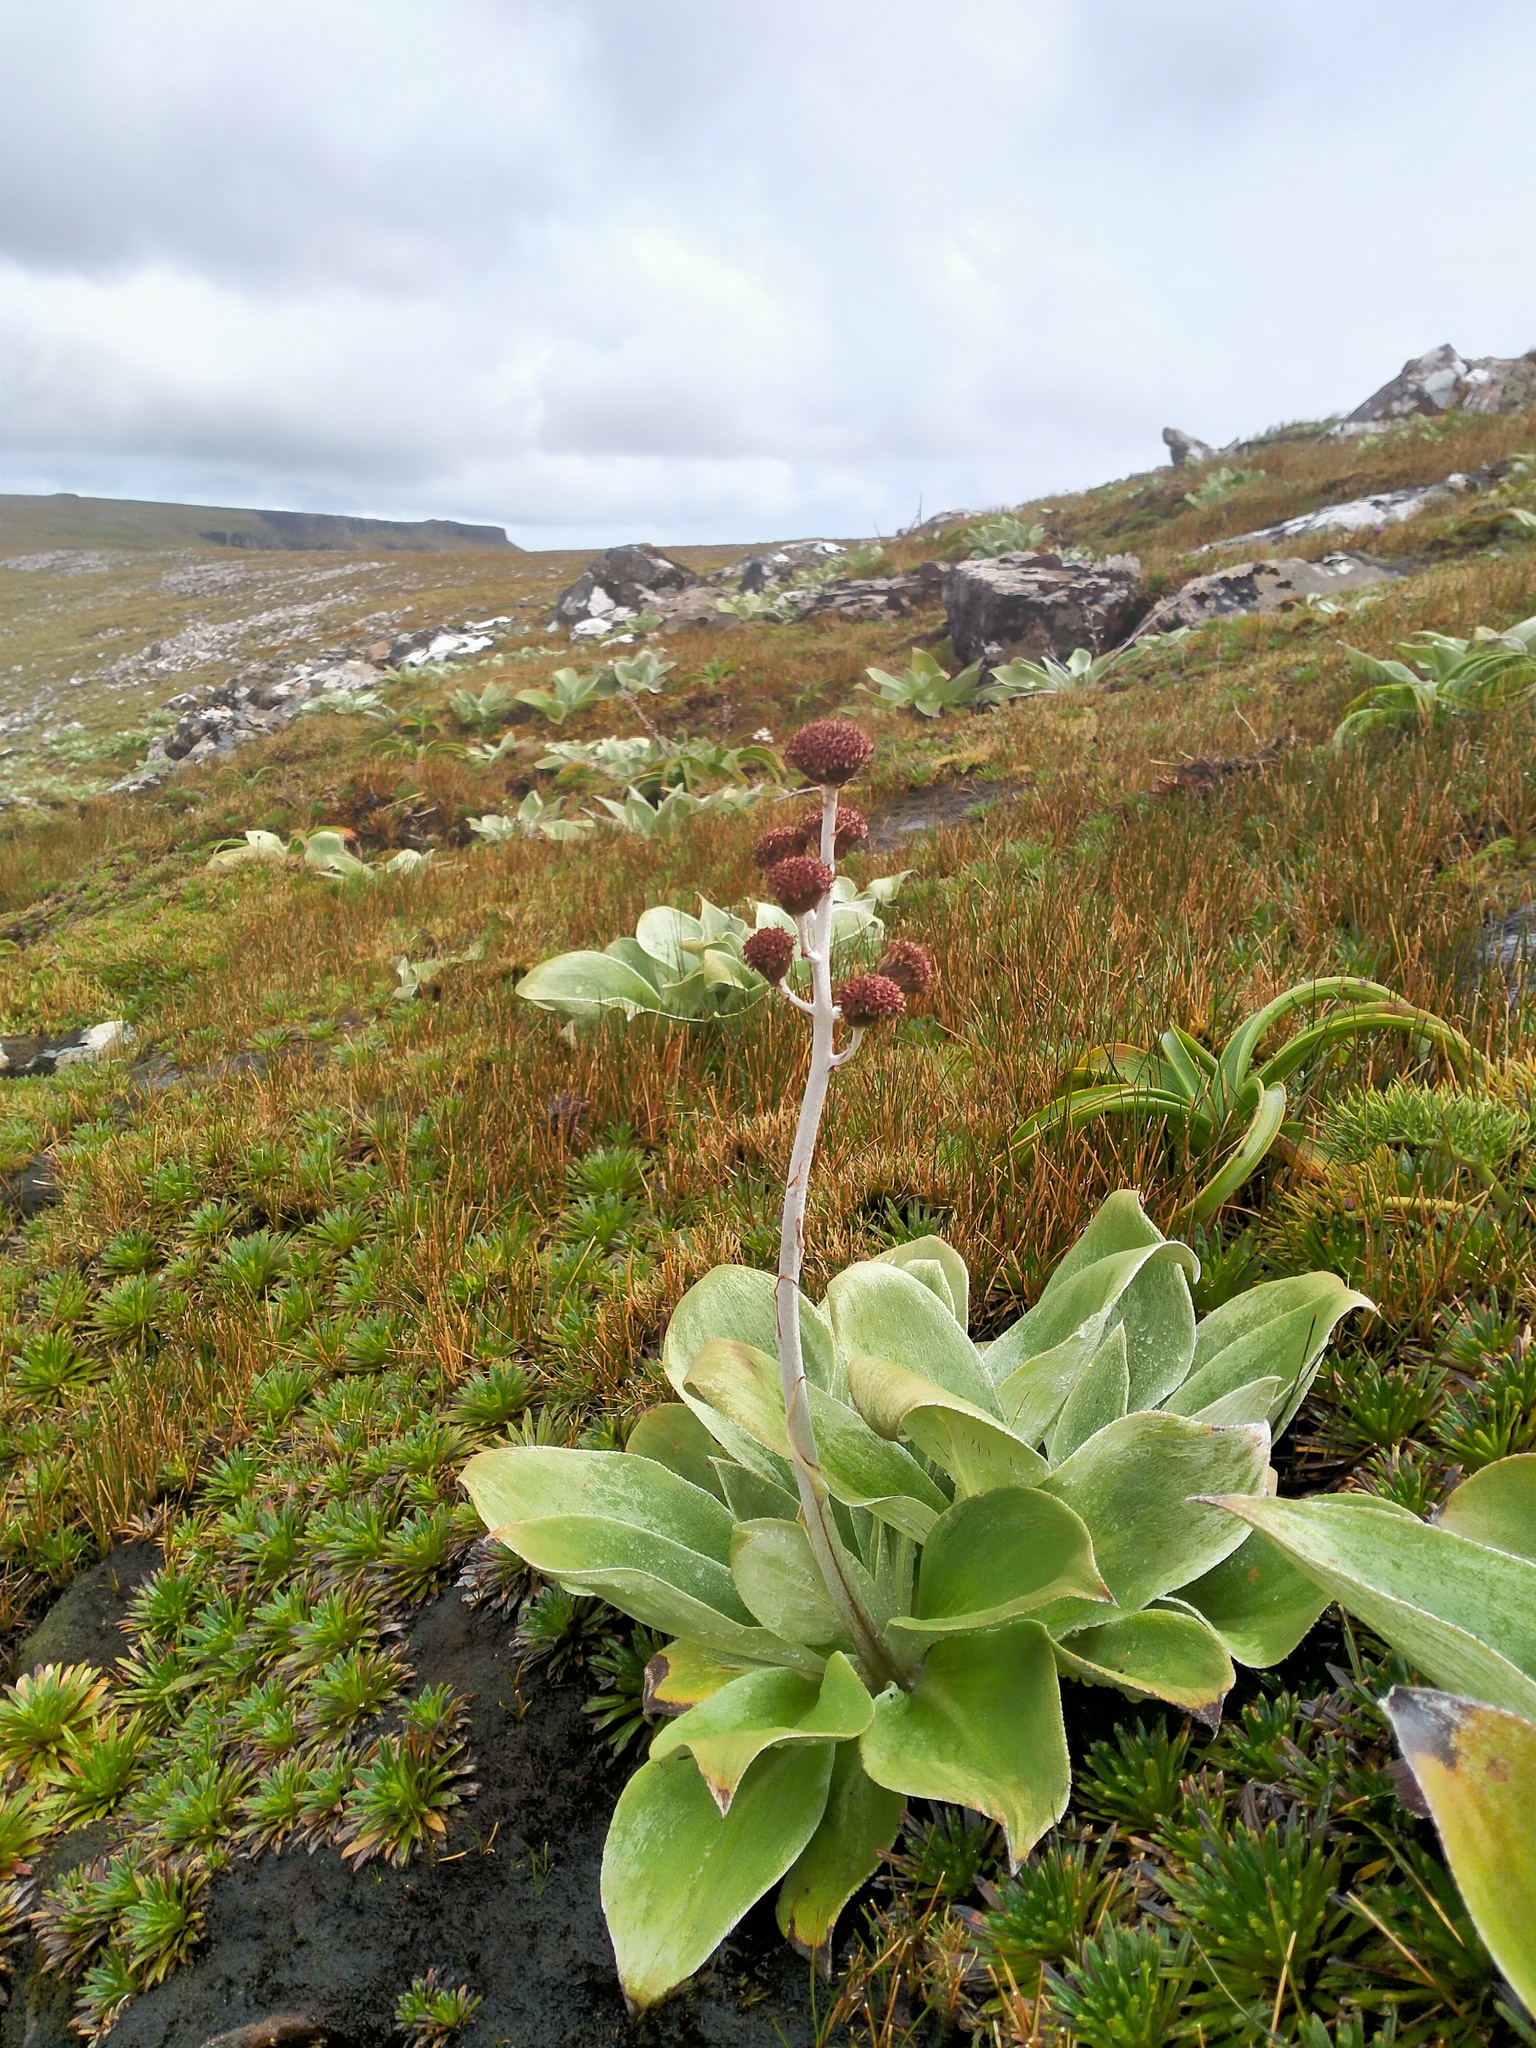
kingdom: Plantae
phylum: Tracheophyta
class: Magnoliopsida
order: Asterales
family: Asteraceae
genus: Pleurophyllum
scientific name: Pleurophyllum hookeri
